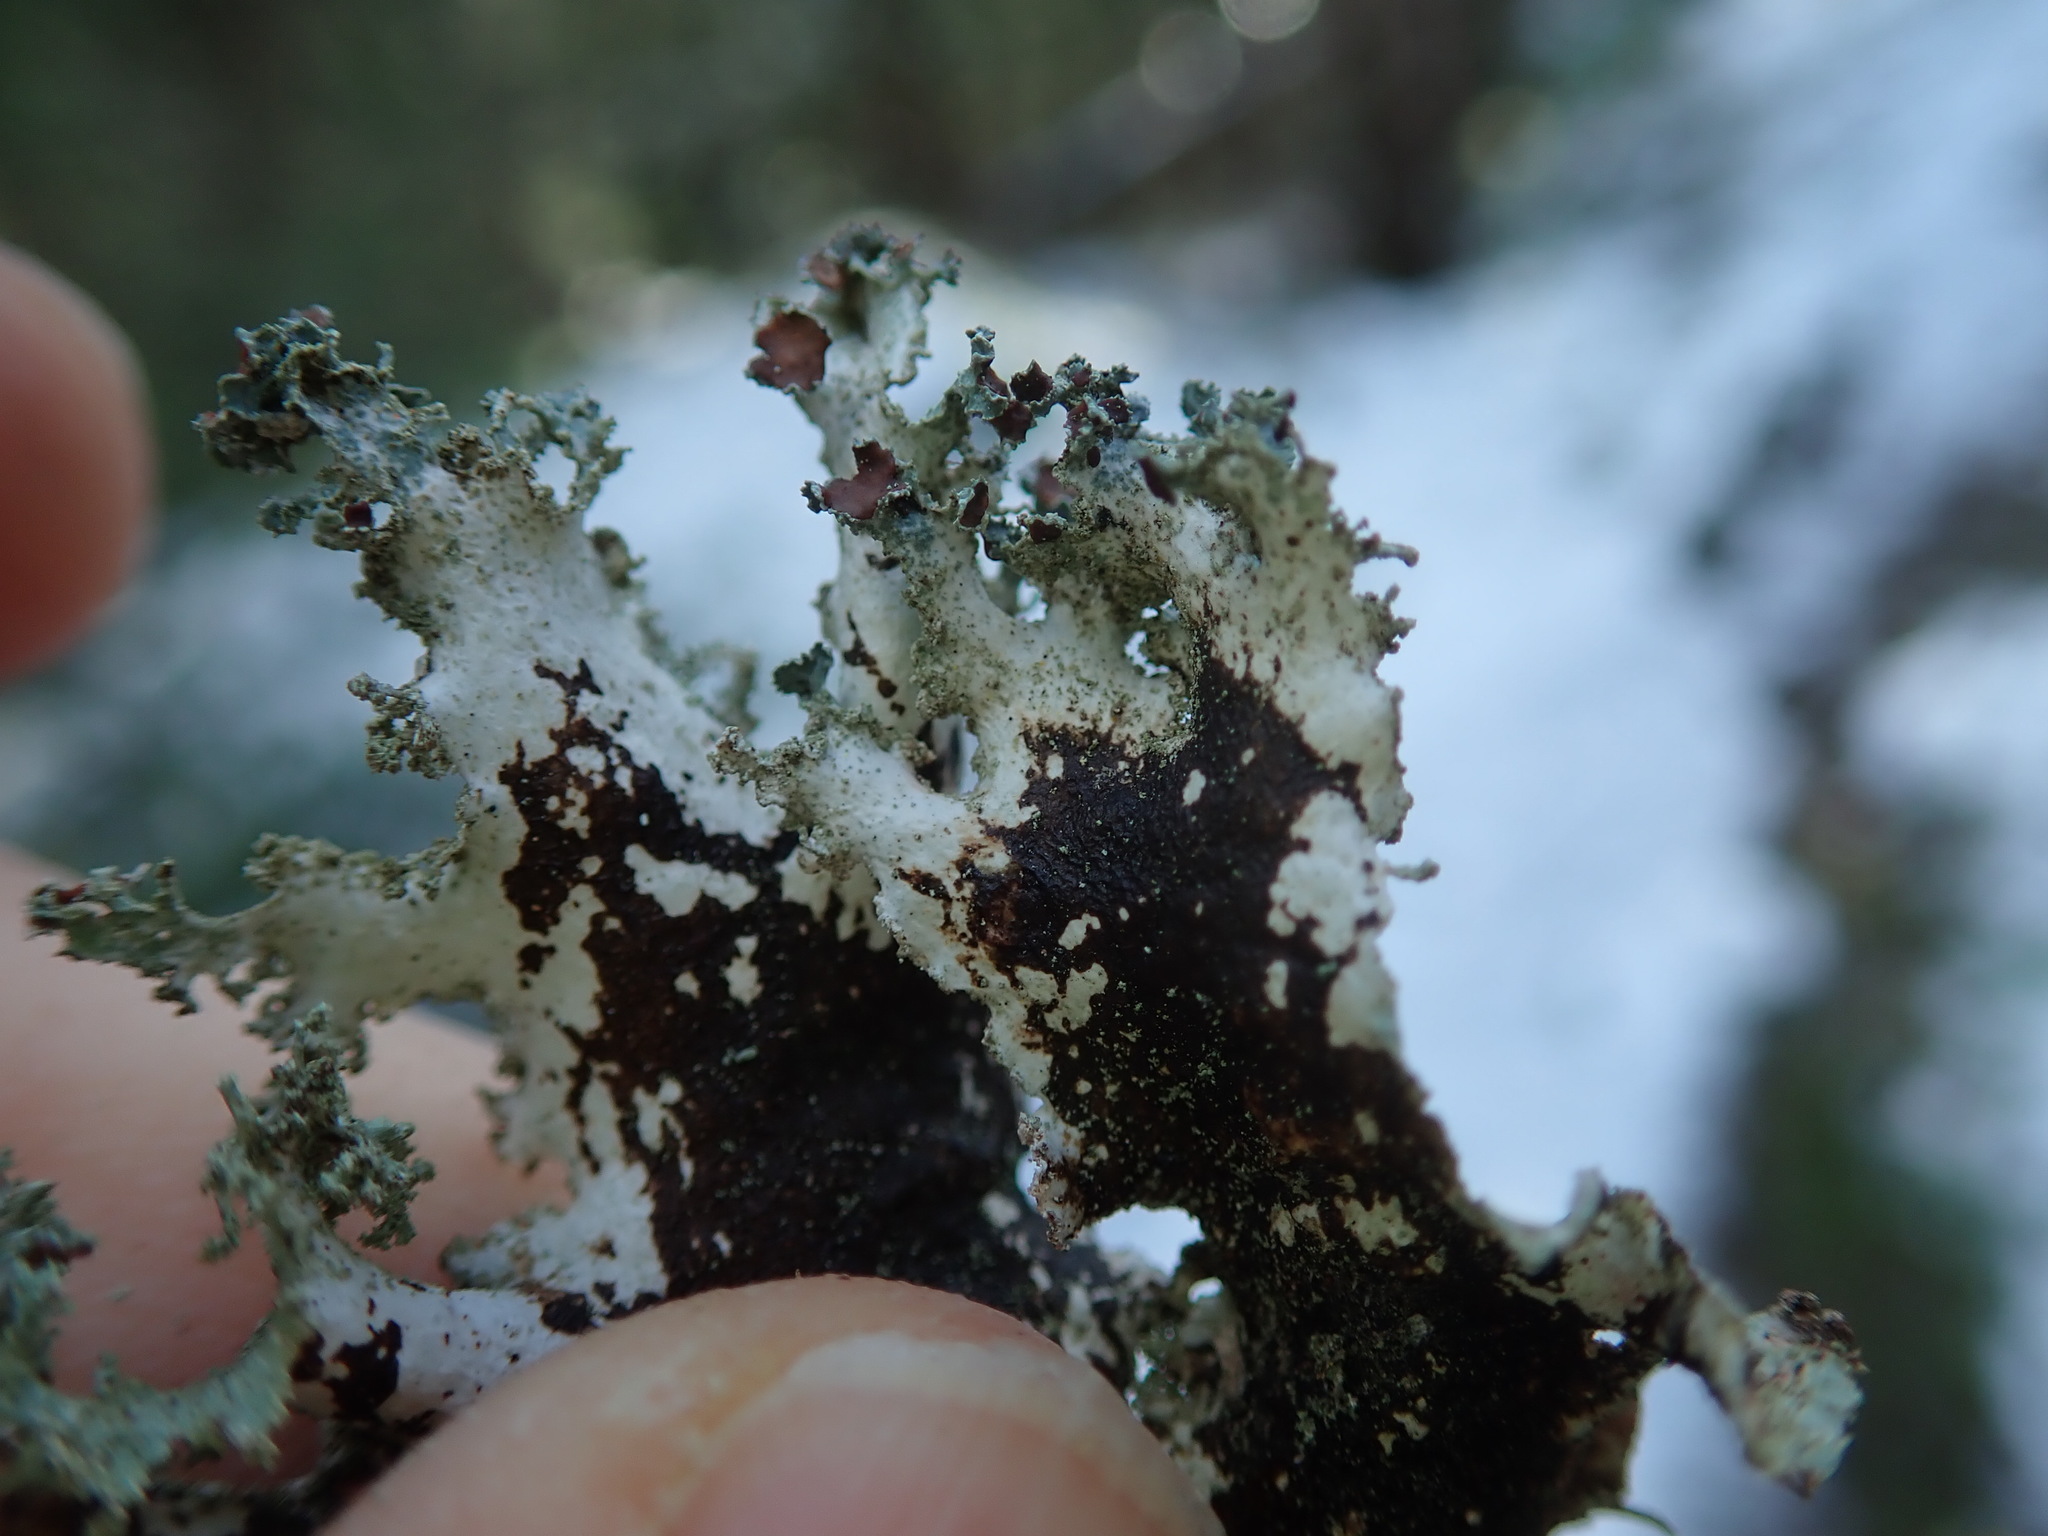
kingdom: Fungi
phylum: Ascomycota
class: Lecanoromycetes
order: Lecanorales
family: Parmeliaceae
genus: Platismatia
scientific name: Platismatia glauca
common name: Varied rag lichen
